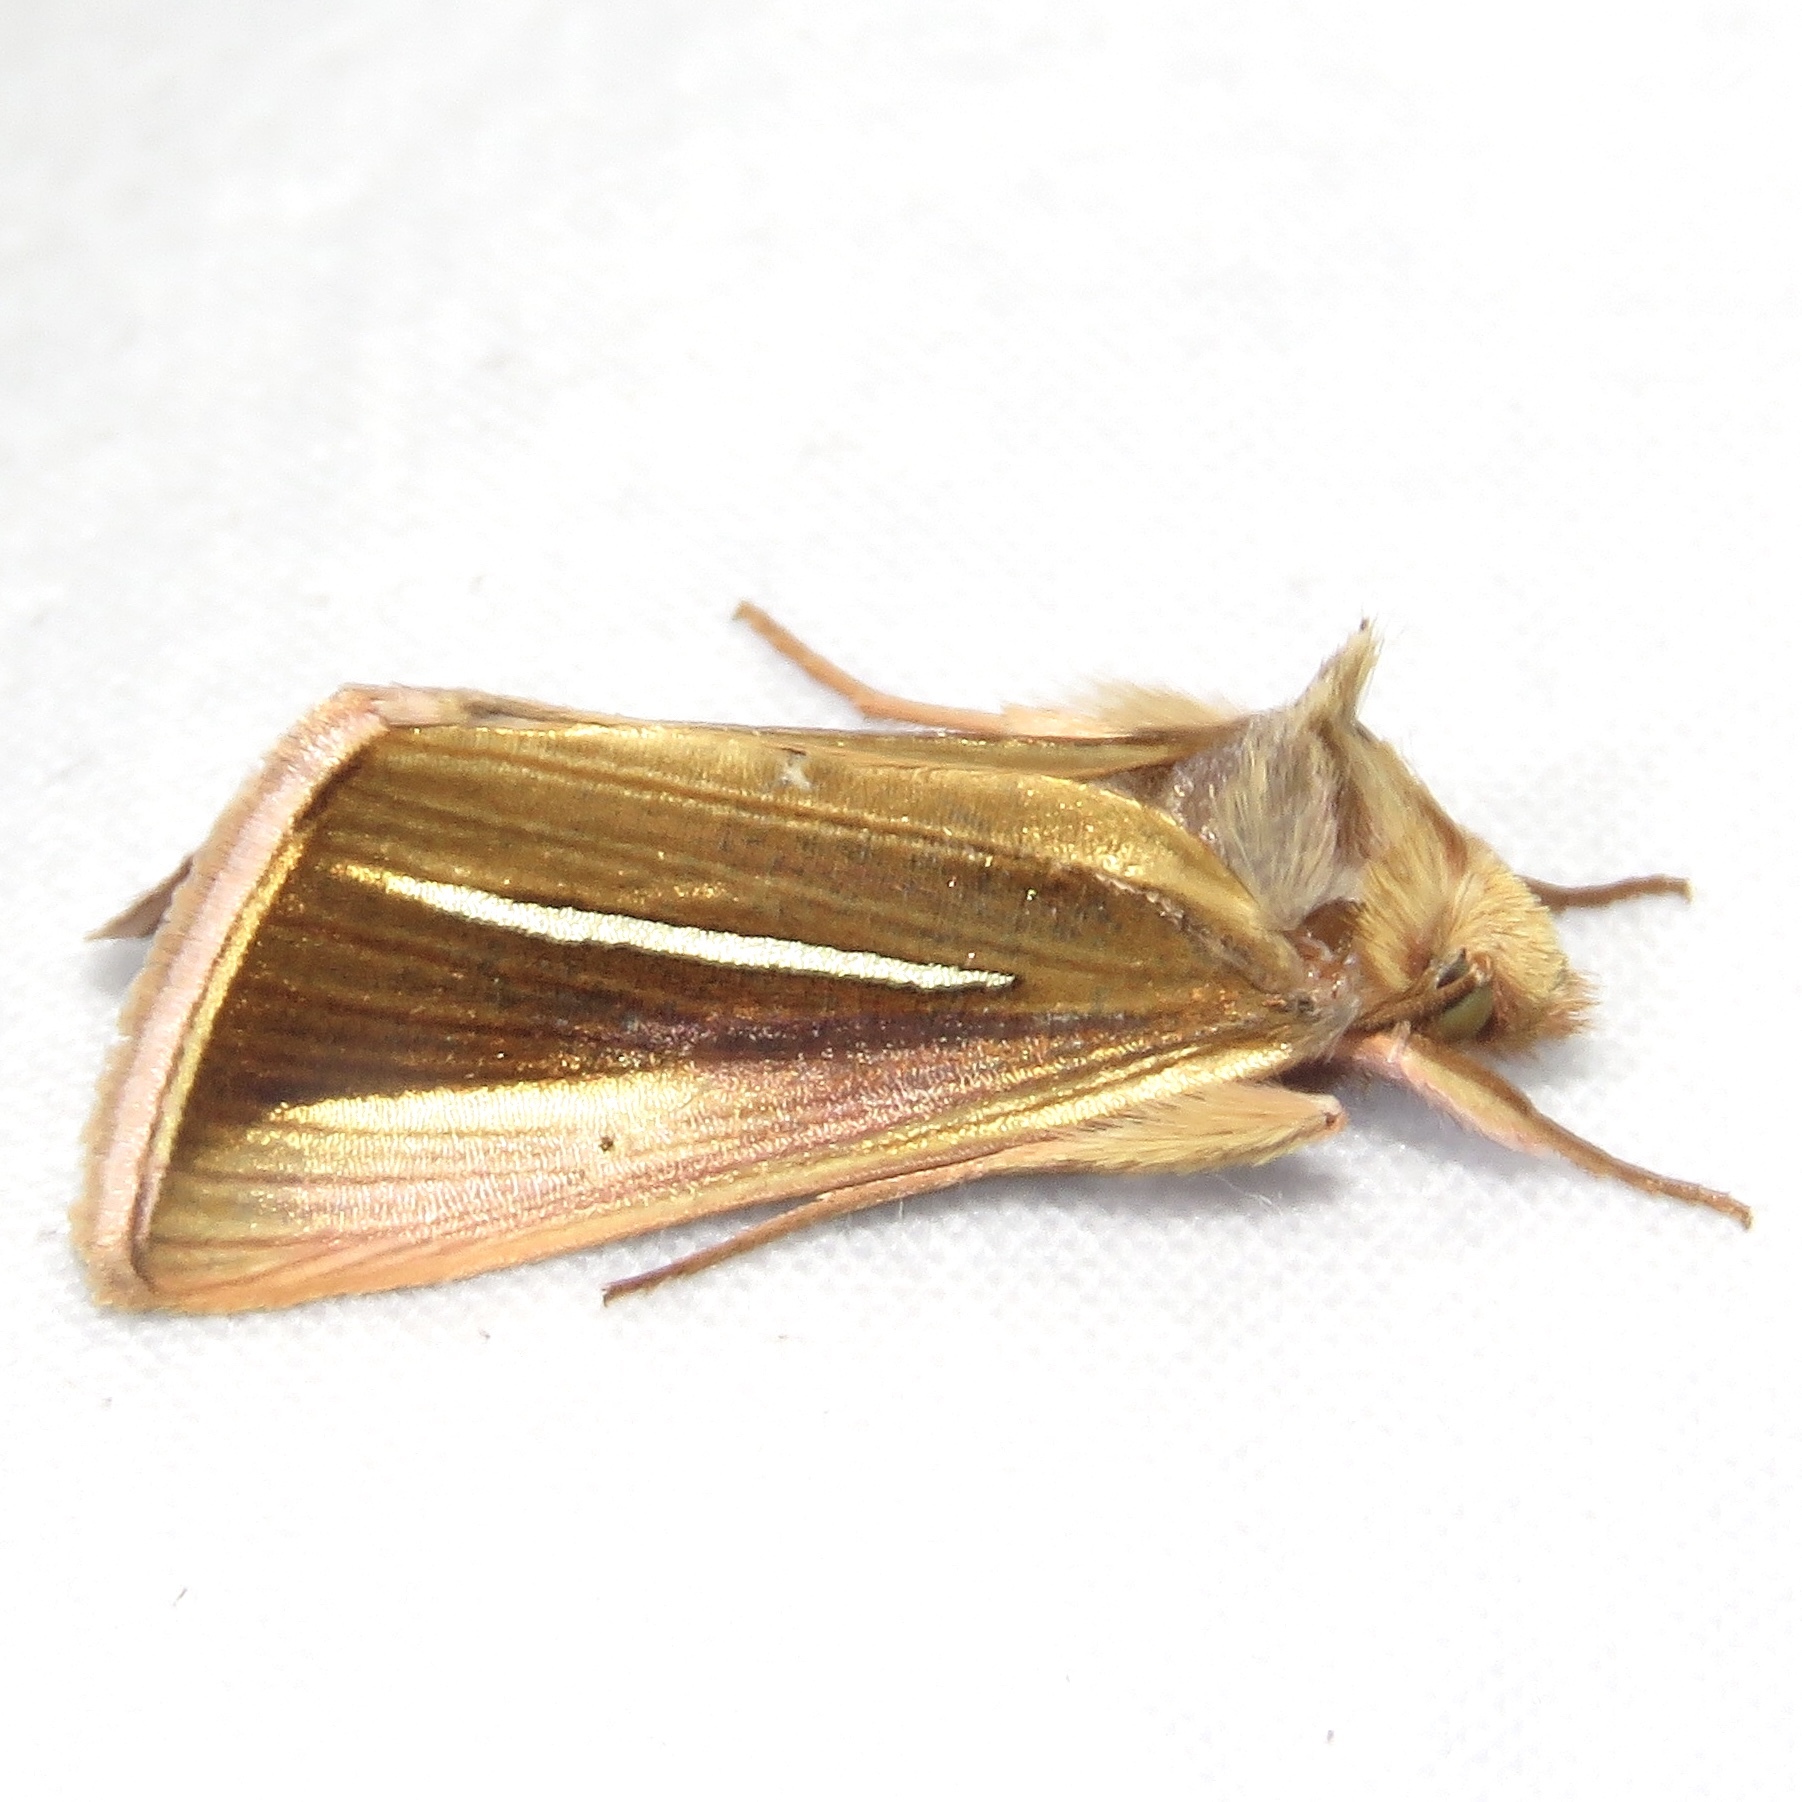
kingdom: Animalia
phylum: Arthropoda
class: Insecta
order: Lepidoptera
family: Noctuidae
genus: Plusia
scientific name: Plusia venusta
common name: White-streaked looper moth
